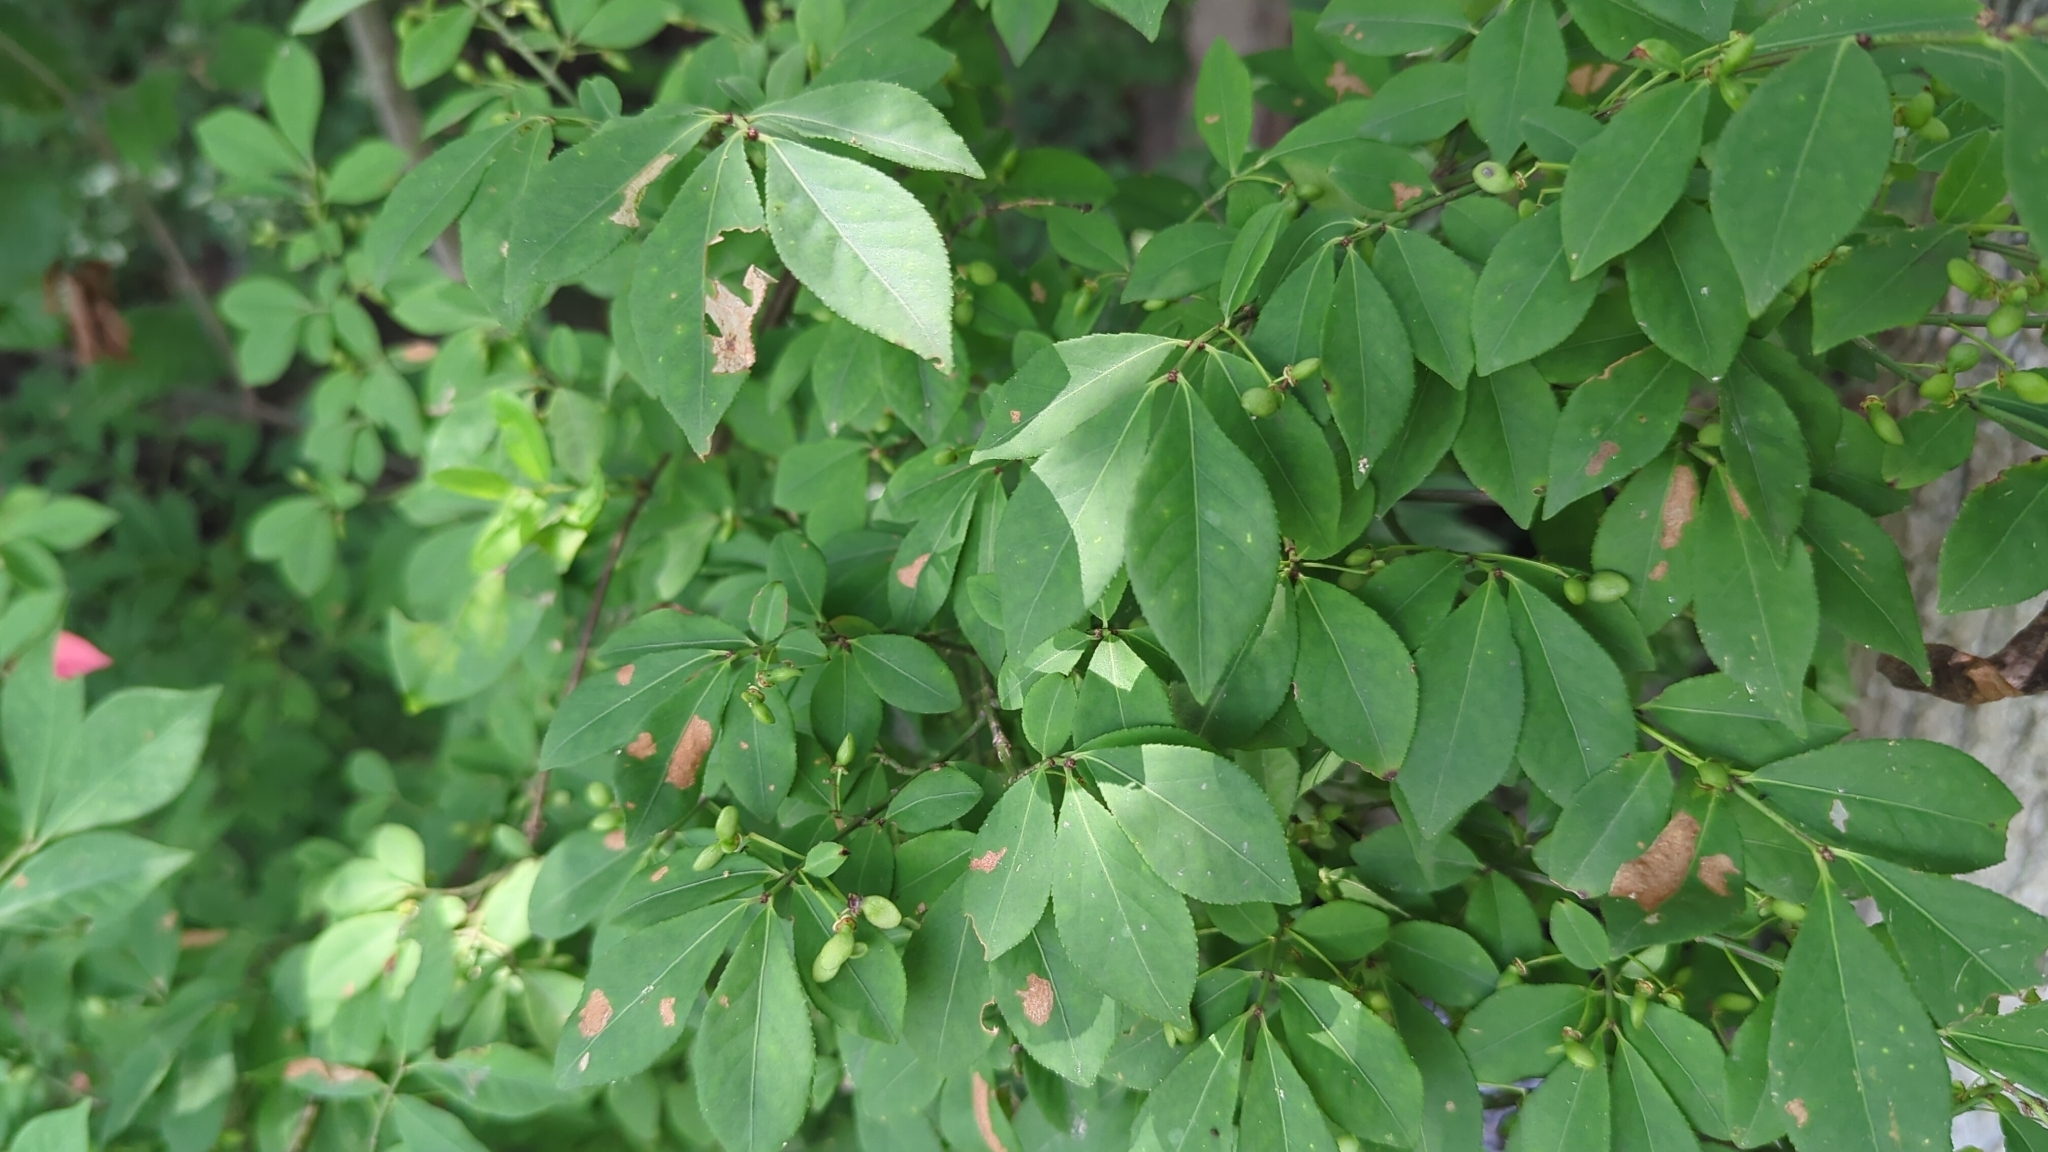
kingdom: Plantae
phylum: Tracheophyta
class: Magnoliopsida
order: Celastrales
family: Celastraceae
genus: Euonymus
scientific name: Euonymus alatus
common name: Winged euonymus
